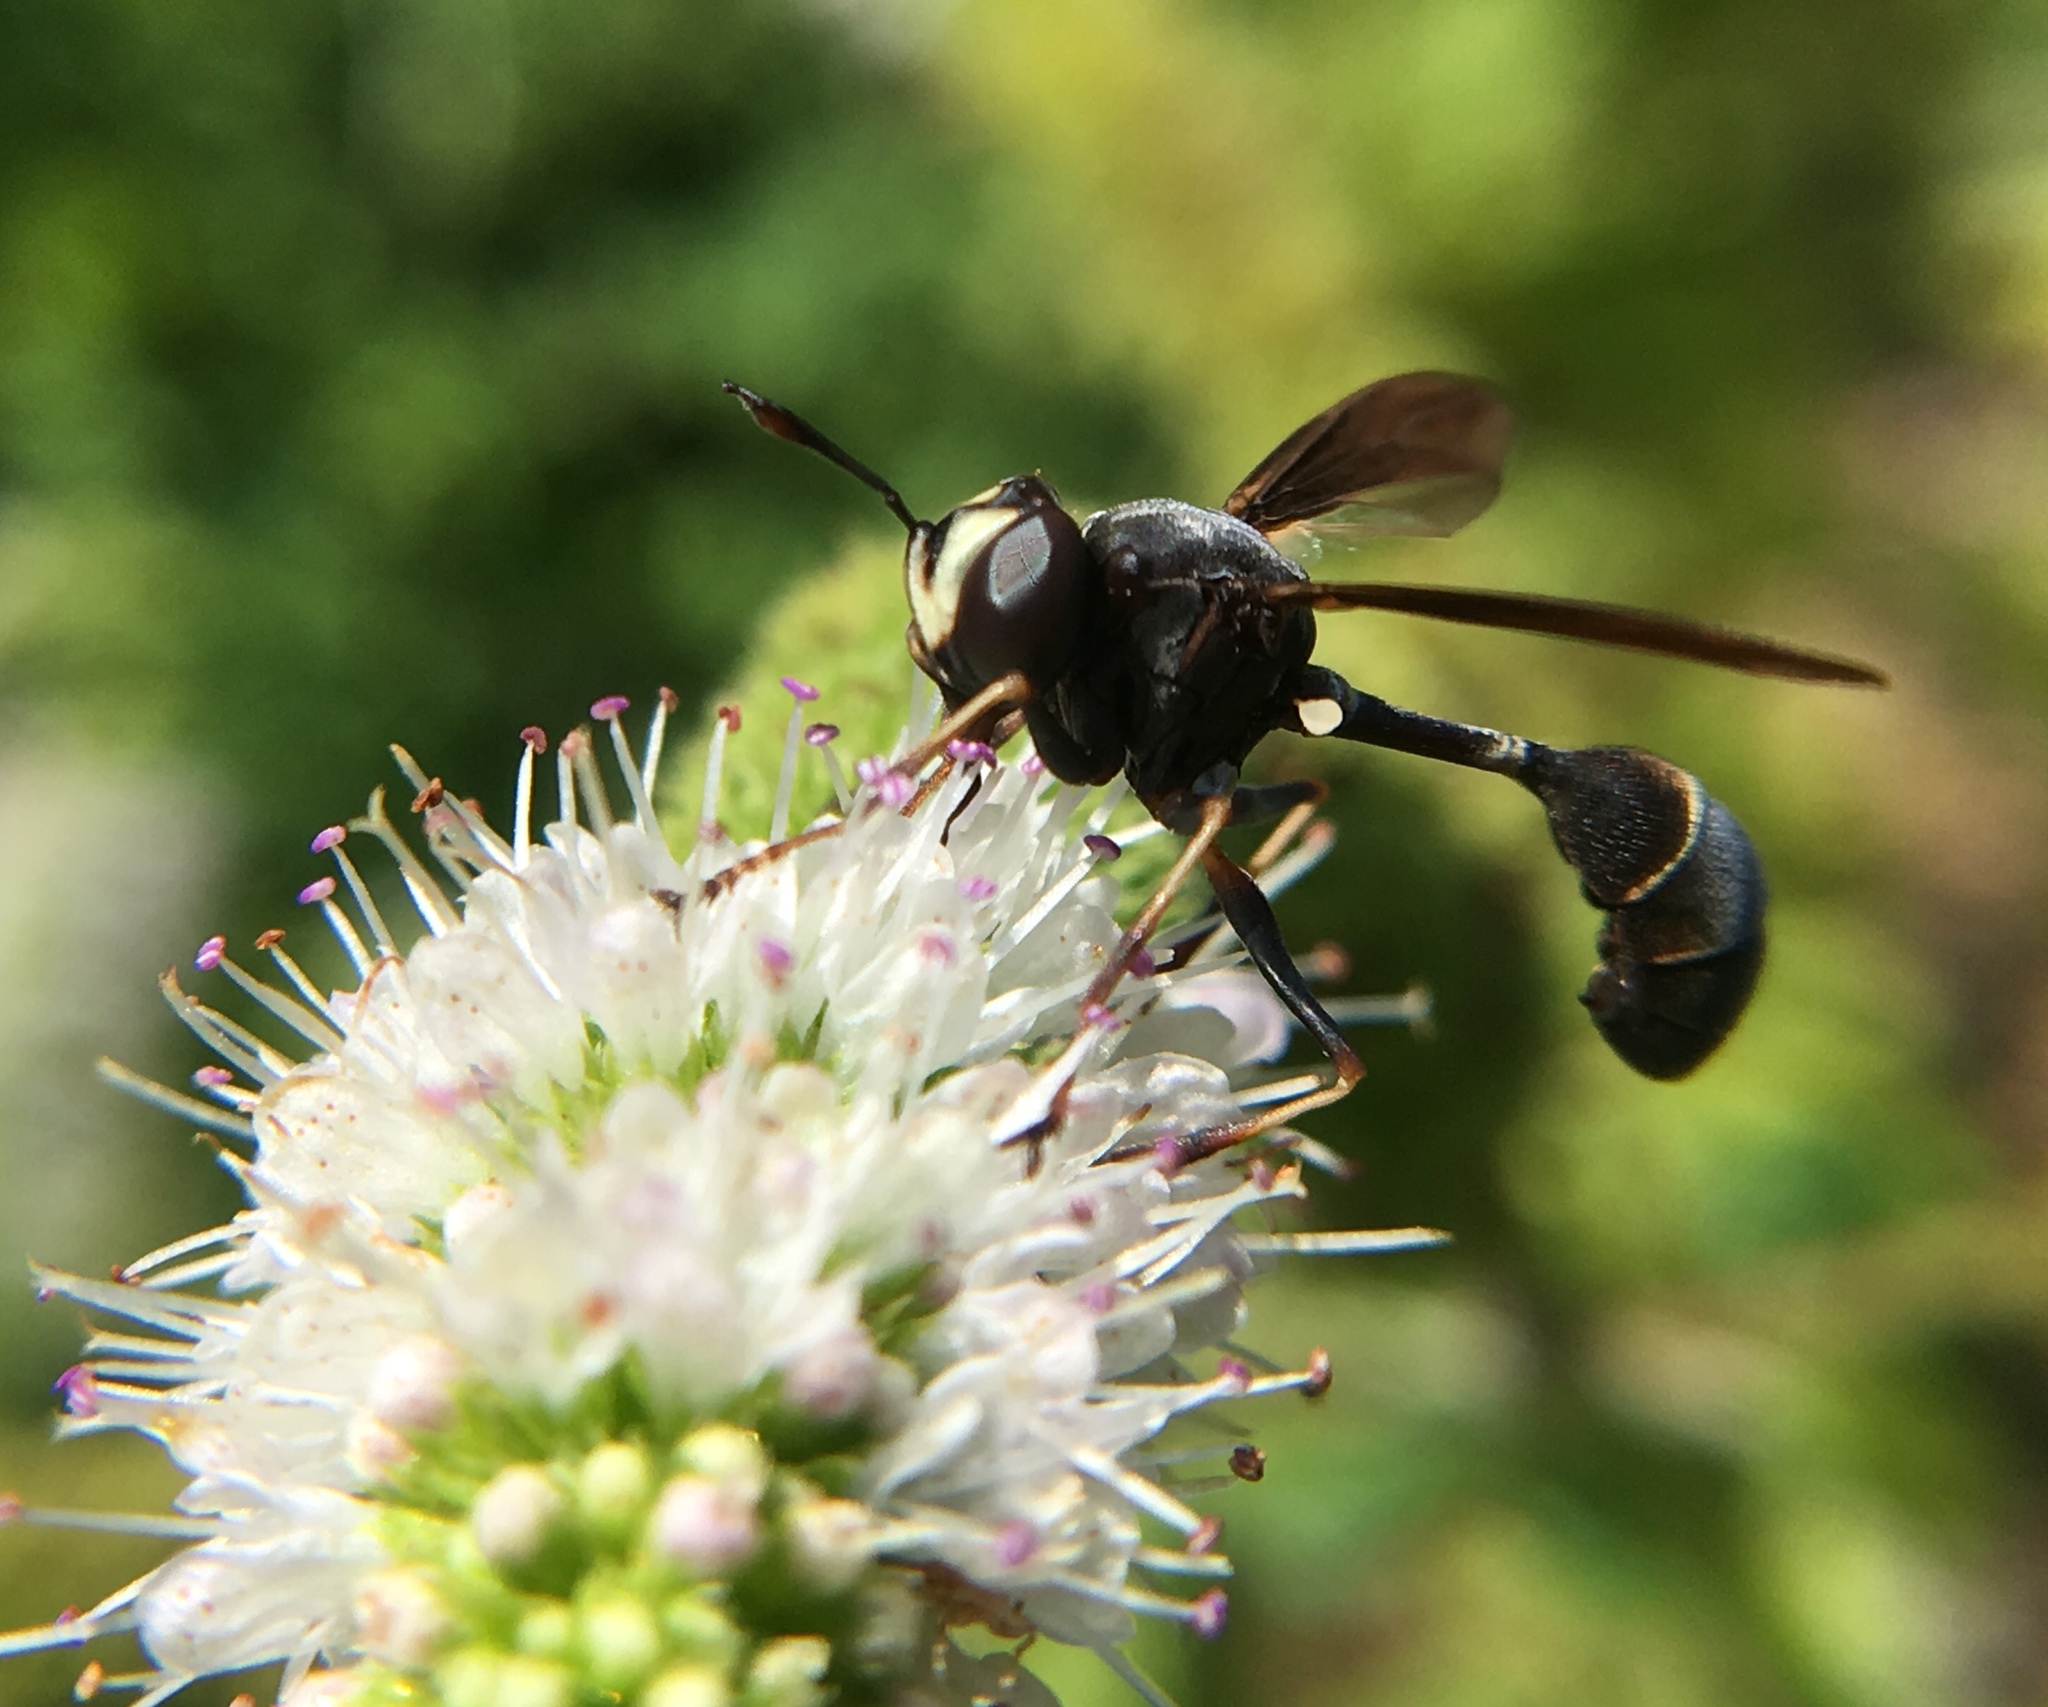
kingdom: Animalia
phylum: Arthropoda
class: Insecta
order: Diptera
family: Conopidae
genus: Physocephala
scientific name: Physocephala tibialis
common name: Common eastern physocephala
